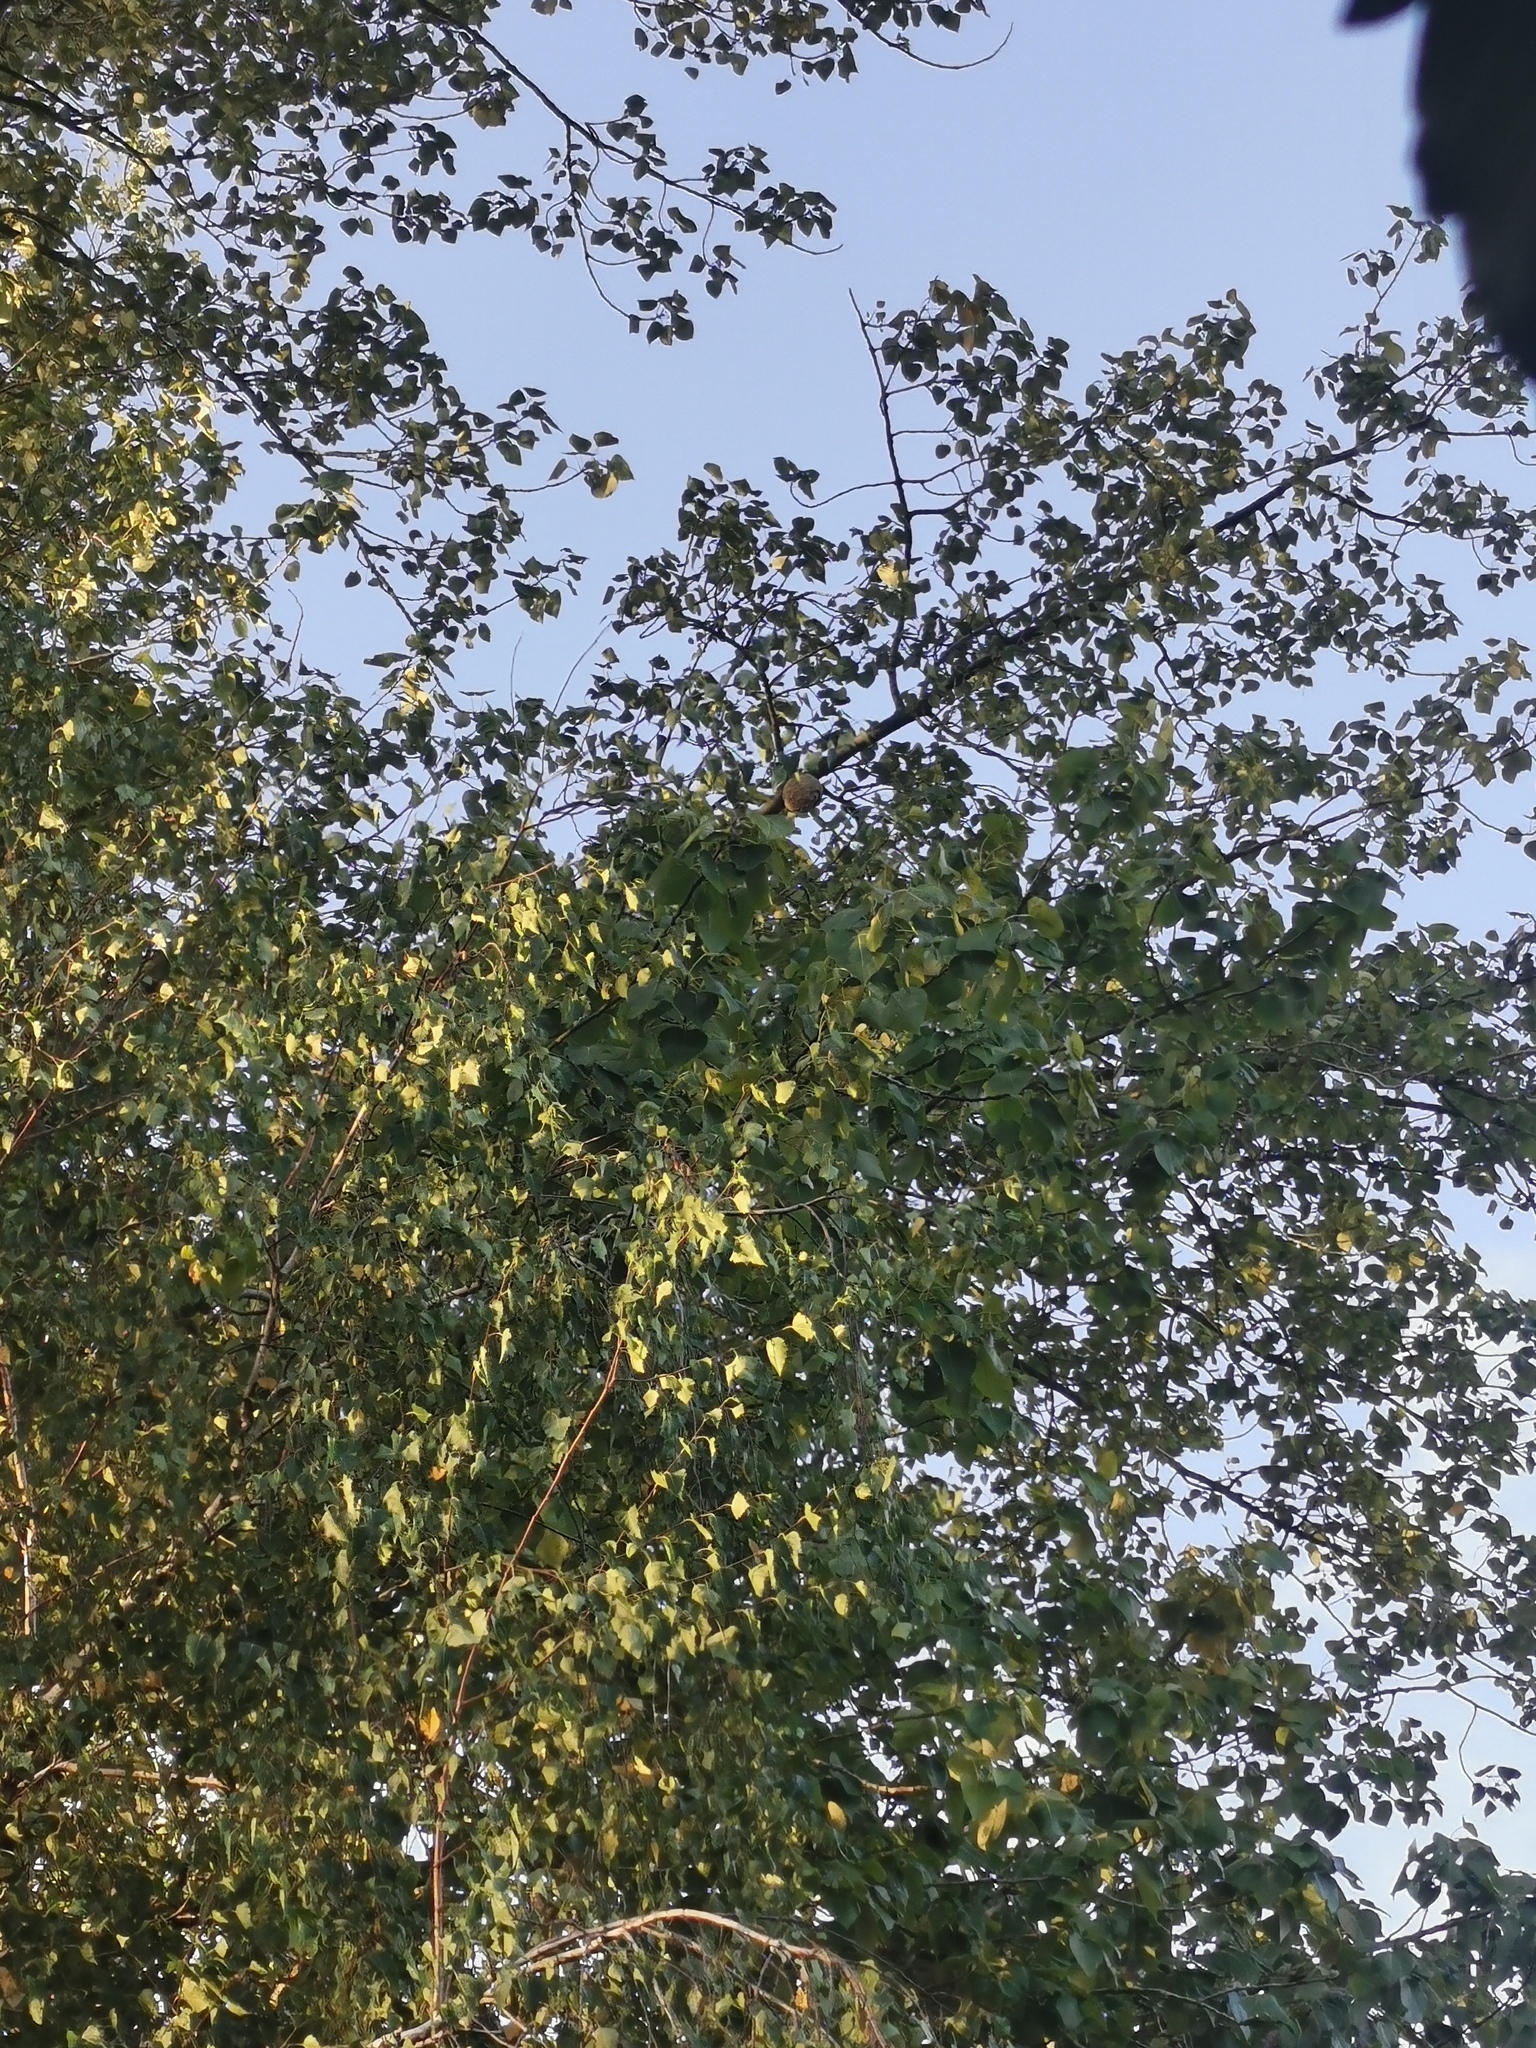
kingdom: Animalia
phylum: Arthropoda
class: Insecta
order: Hymenoptera
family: Vespidae
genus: Vespa
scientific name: Vespa velutina
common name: Asian hornet
